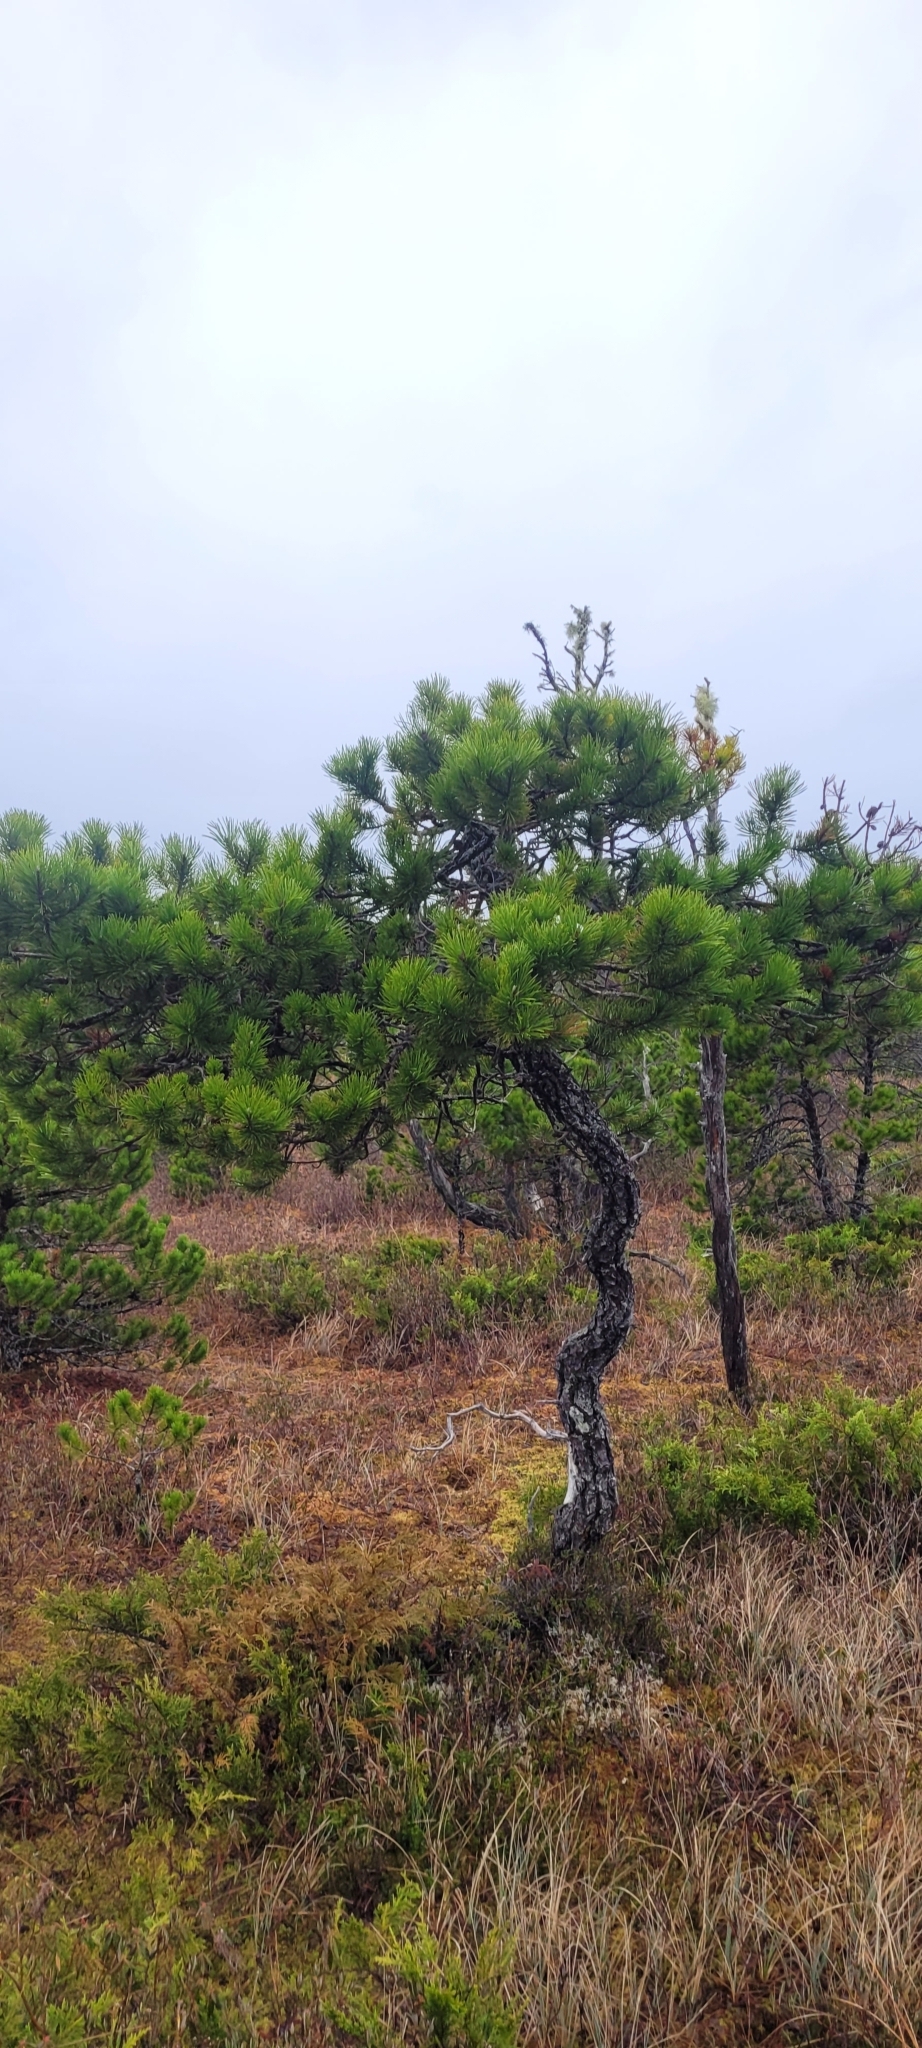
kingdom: Plantae
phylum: Tracheophyta
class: Pinopsida
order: Pinales
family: Pinaceae
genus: Pinus
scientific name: Pinus contorta
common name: Lodgepole pine
